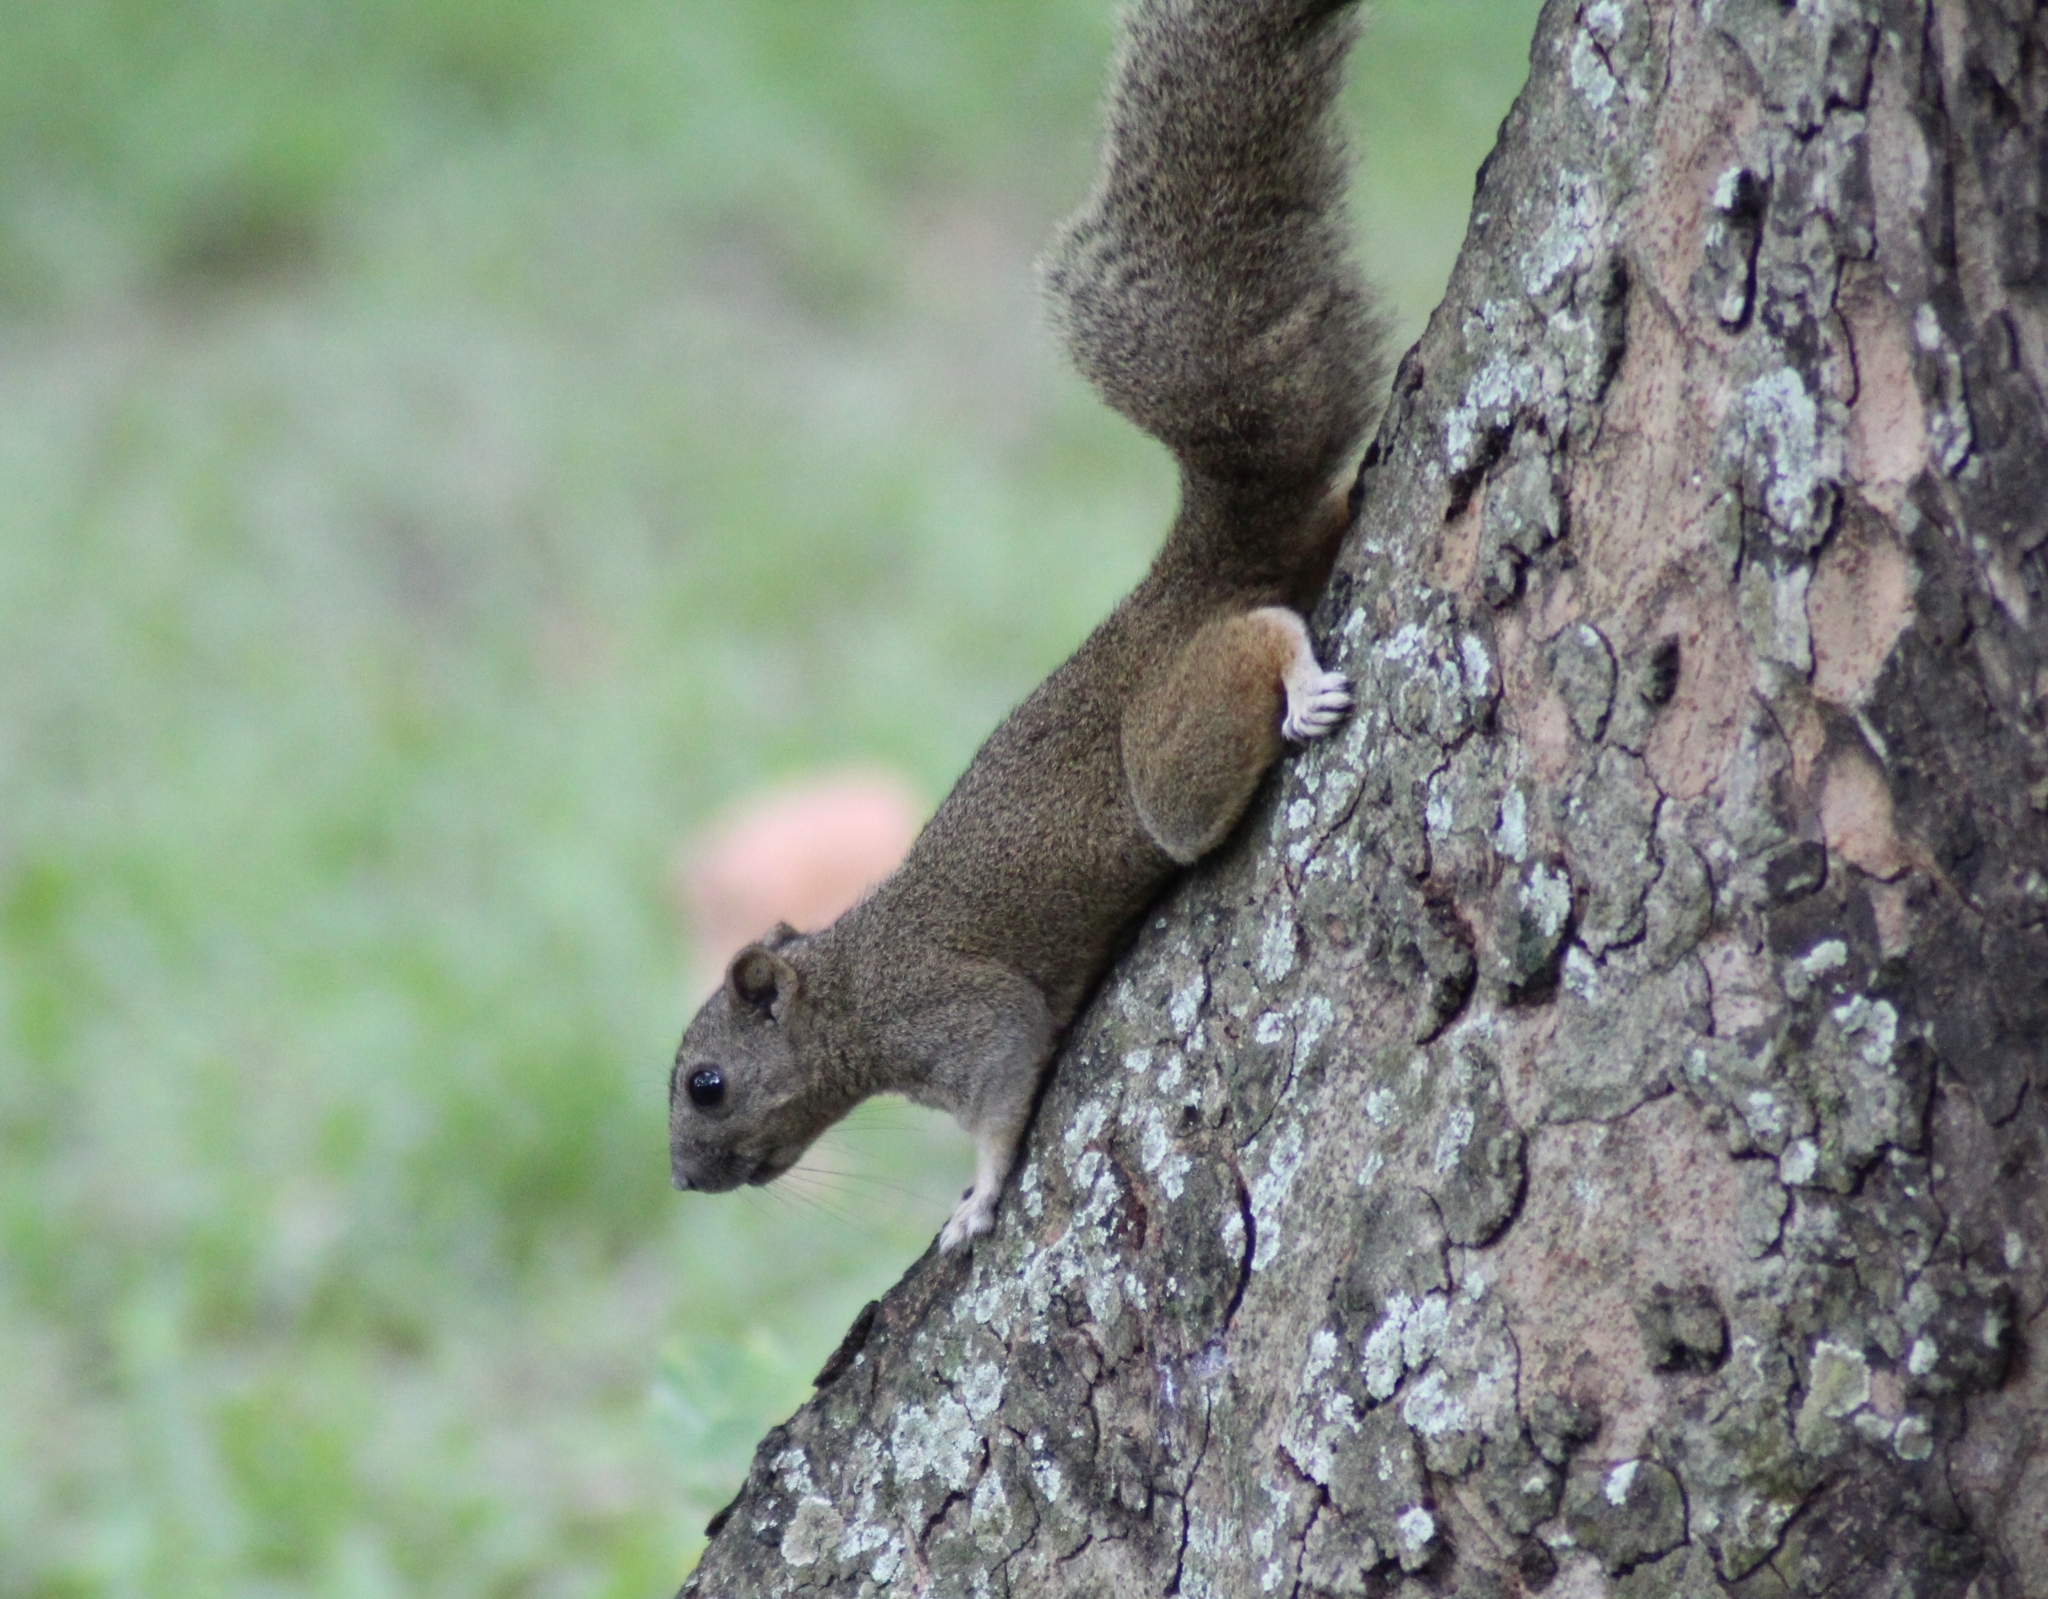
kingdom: Animalia
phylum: Chordata
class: Mammalia
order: Rodentia
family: Sciuridae
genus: Callosciurus
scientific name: Callosciurus erythraeus
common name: Pallas's squirrel
